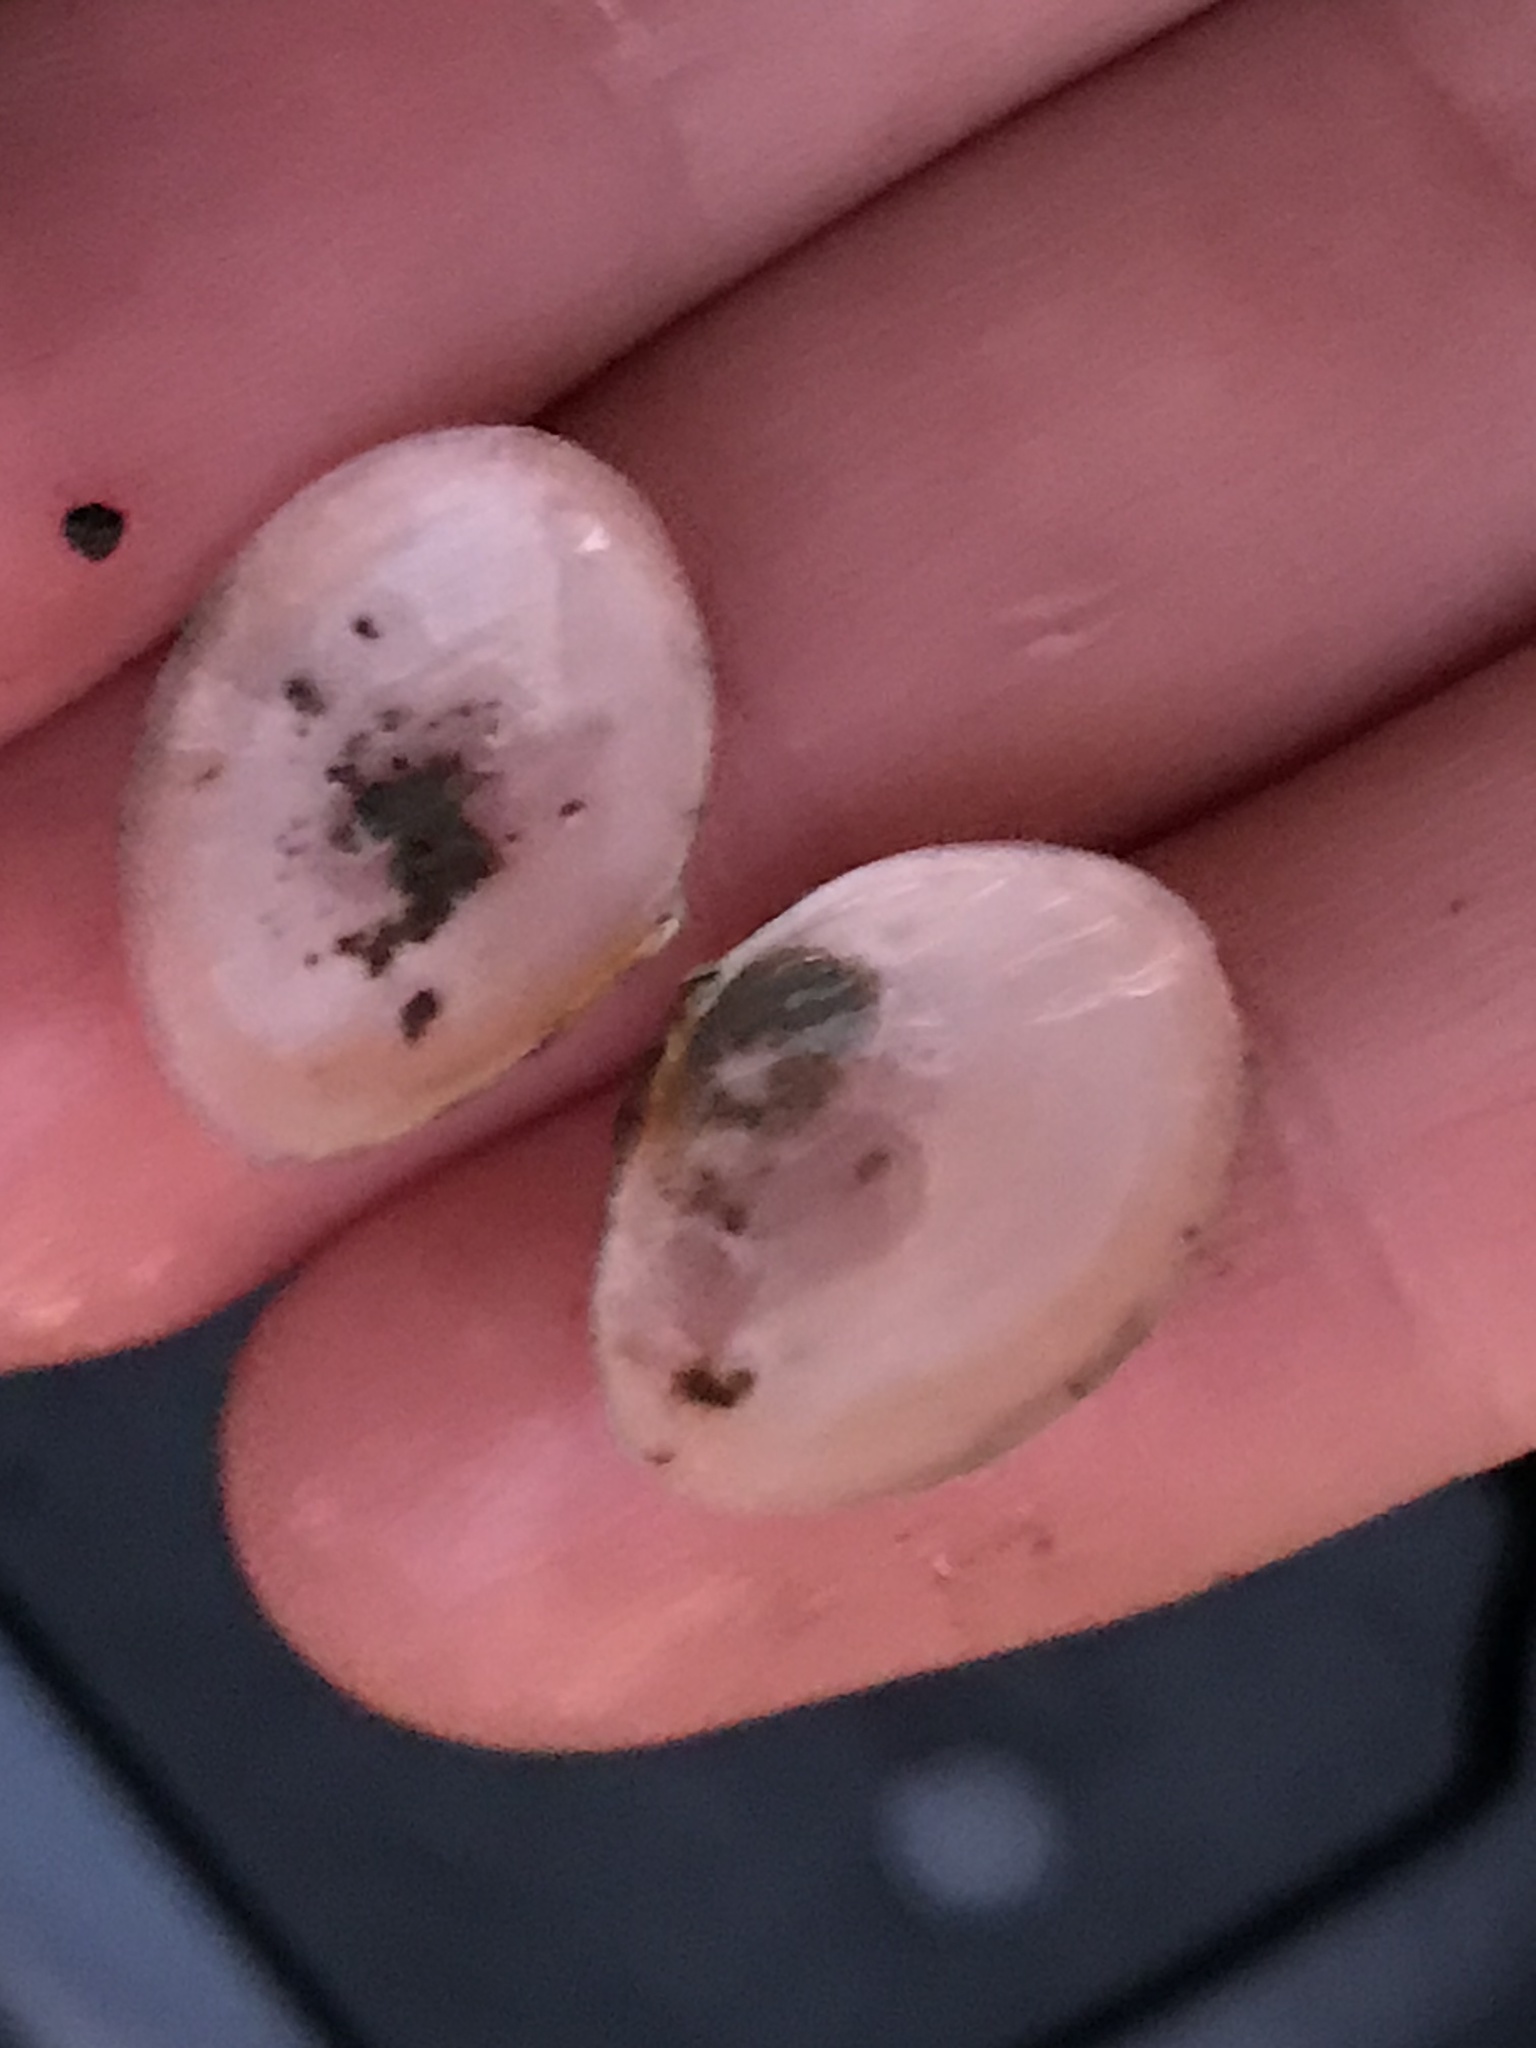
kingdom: Animalia
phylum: Mollusca
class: Bivalvia
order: Cardiida
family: Tellinidae
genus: Macoma
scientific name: Macoma petalum
